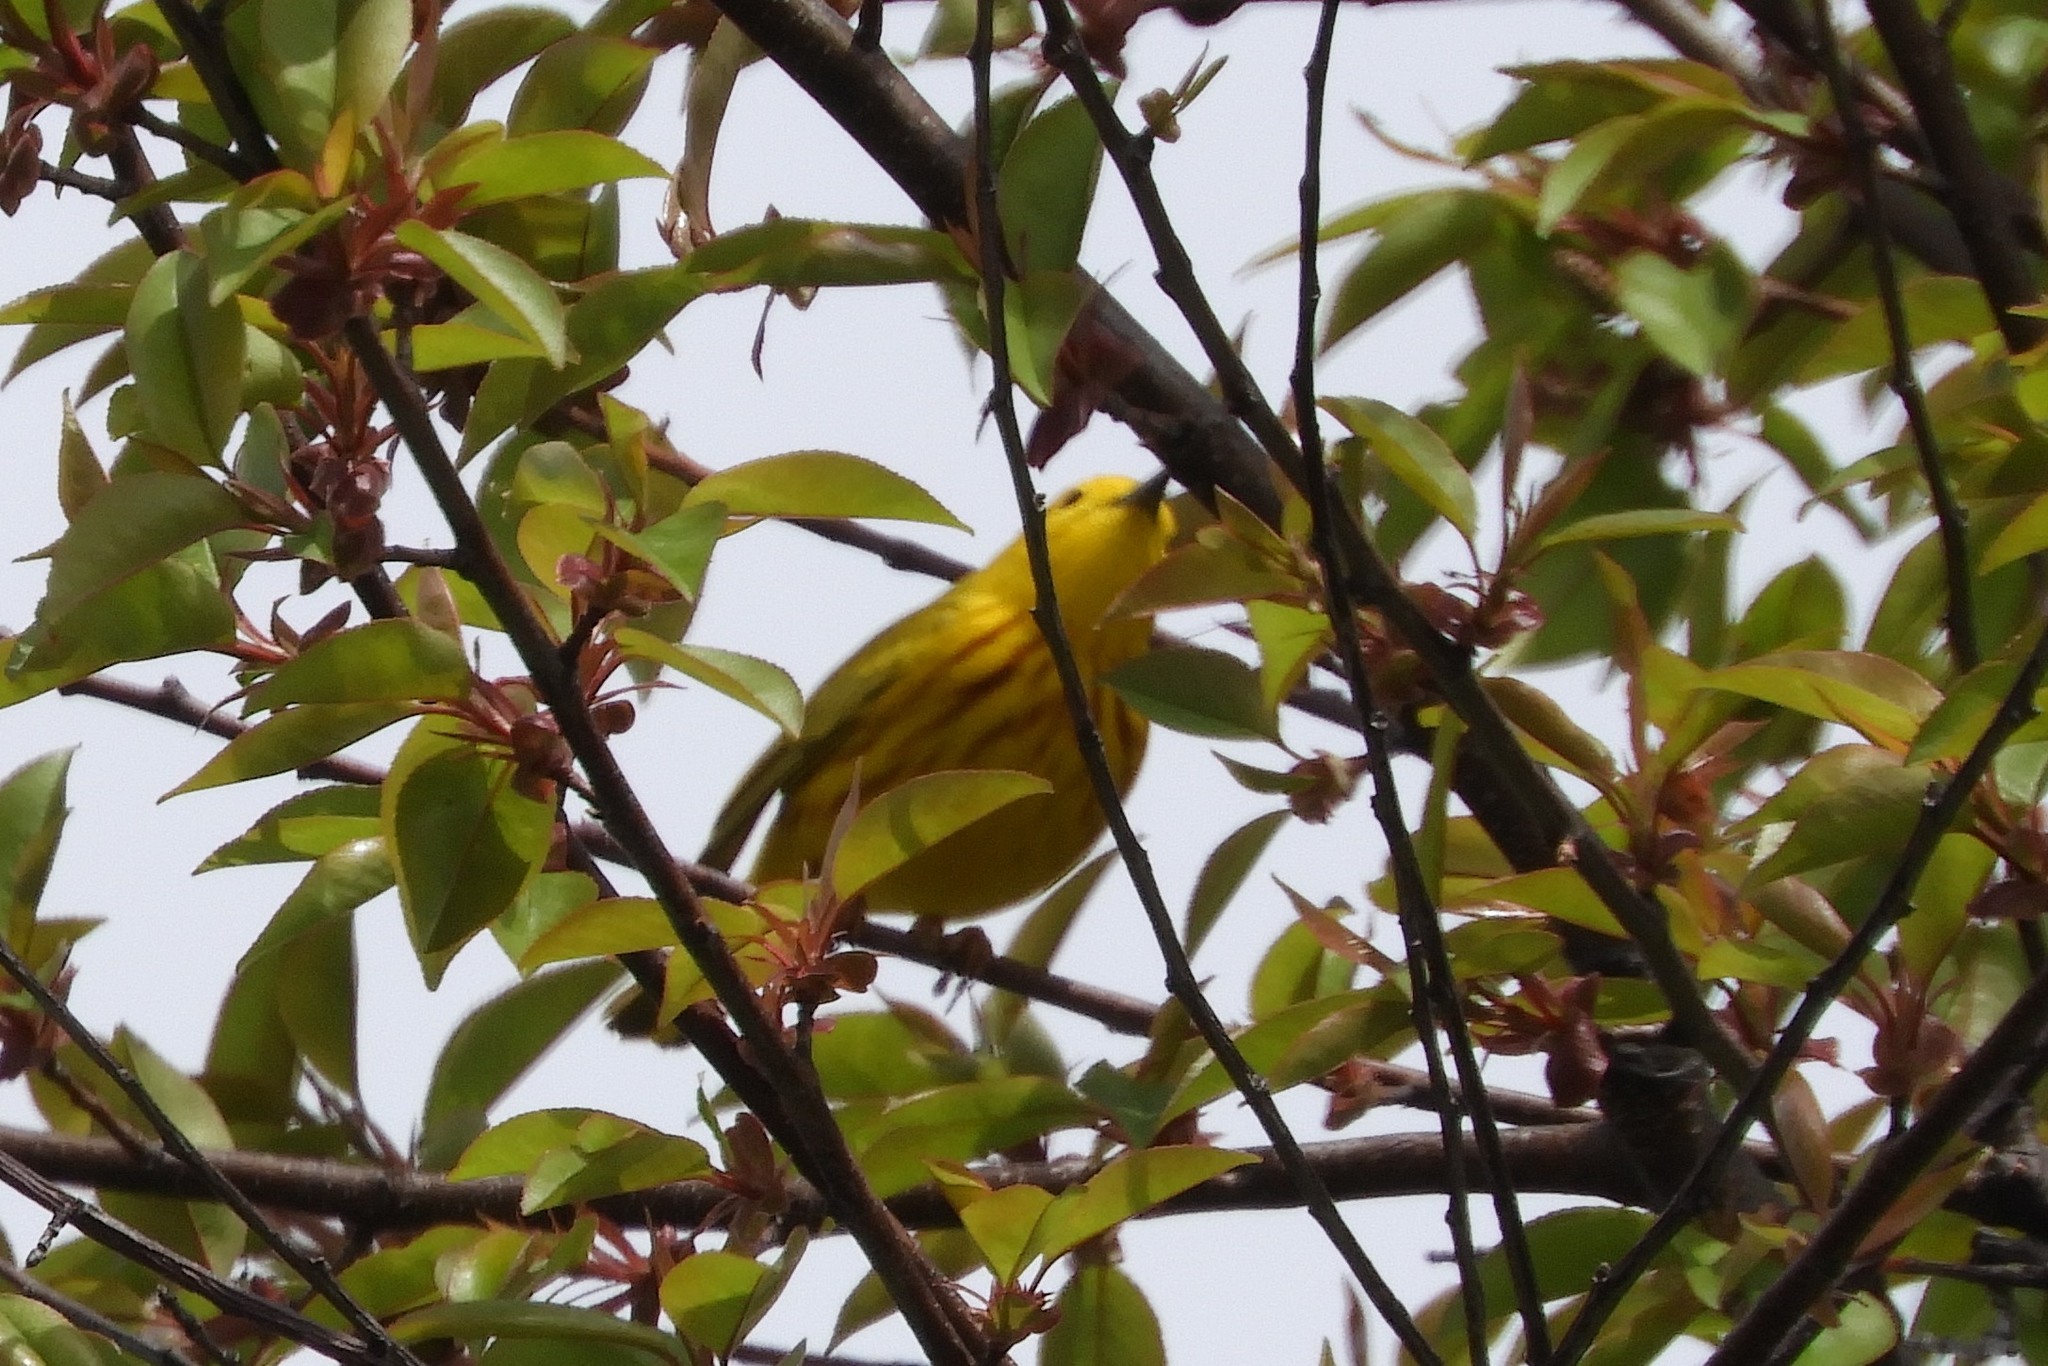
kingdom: Animalia
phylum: Chordata
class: Aves
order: Passeriformes
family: Parulidae
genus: Setophaga
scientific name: Setophaga petechia
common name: Yellow warbler
